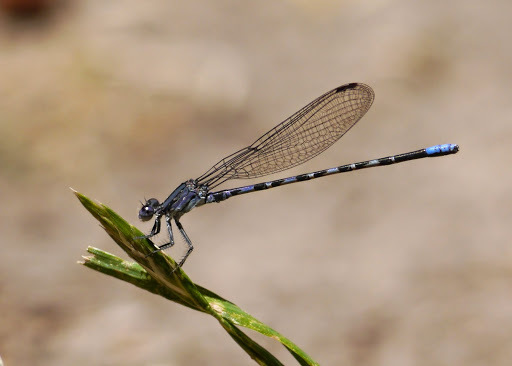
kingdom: Animalia
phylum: Arthropoda
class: Insecta
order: Odonata
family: Coenagrionidae
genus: Argia
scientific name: Argia immunda
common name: Kiowa dancer
